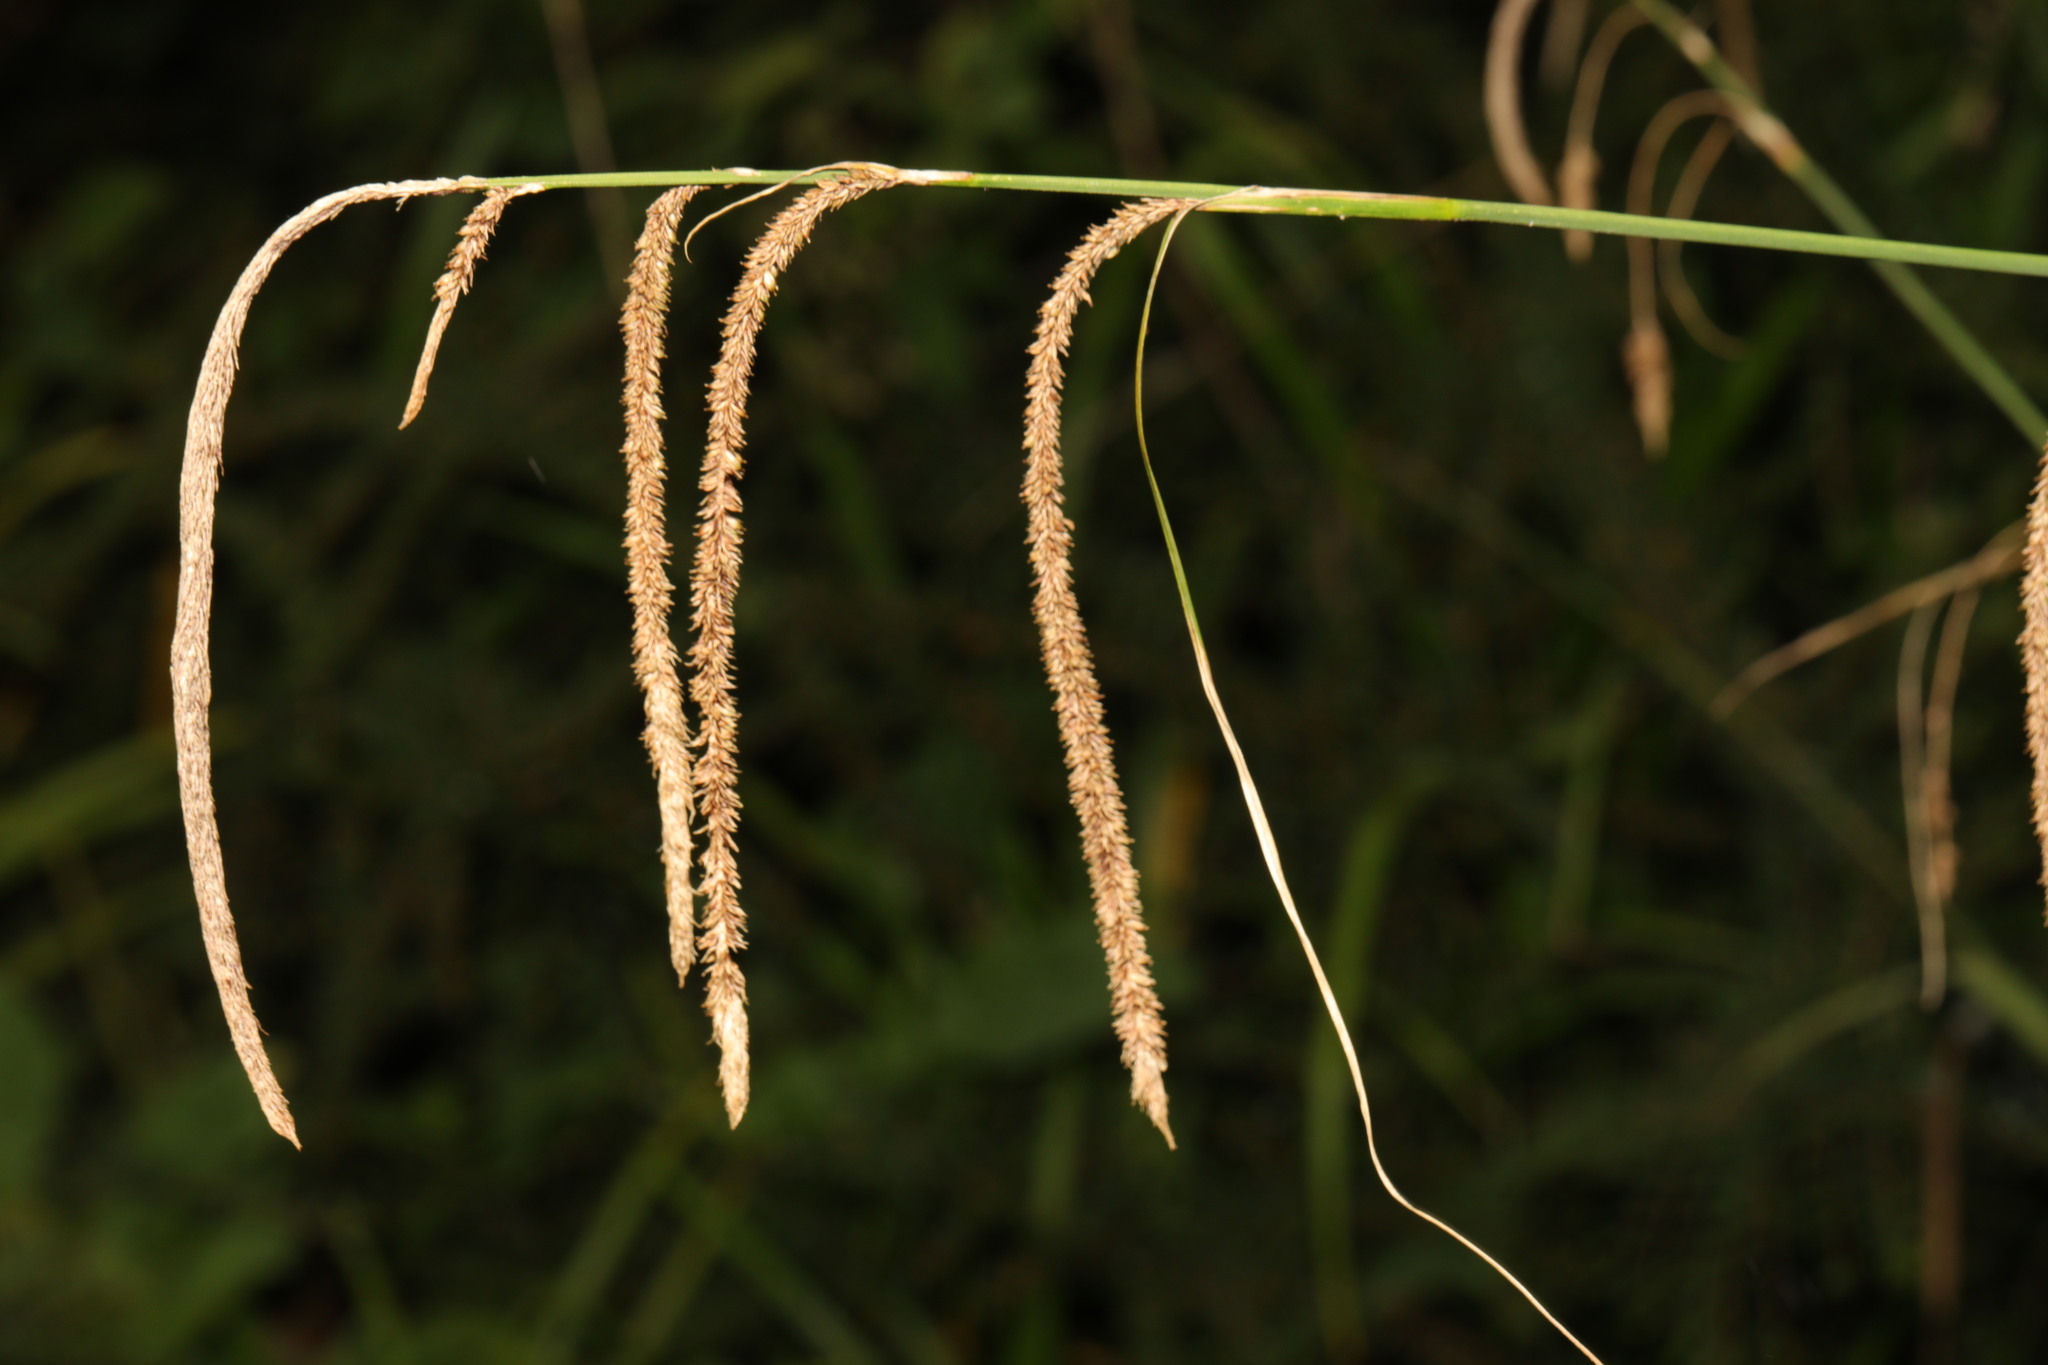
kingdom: Plantae
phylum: Tracheophyta
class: Liliopsida
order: Poales
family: Cyperaceae
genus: Carex
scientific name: Carex pendula
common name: Pendulous sedge
